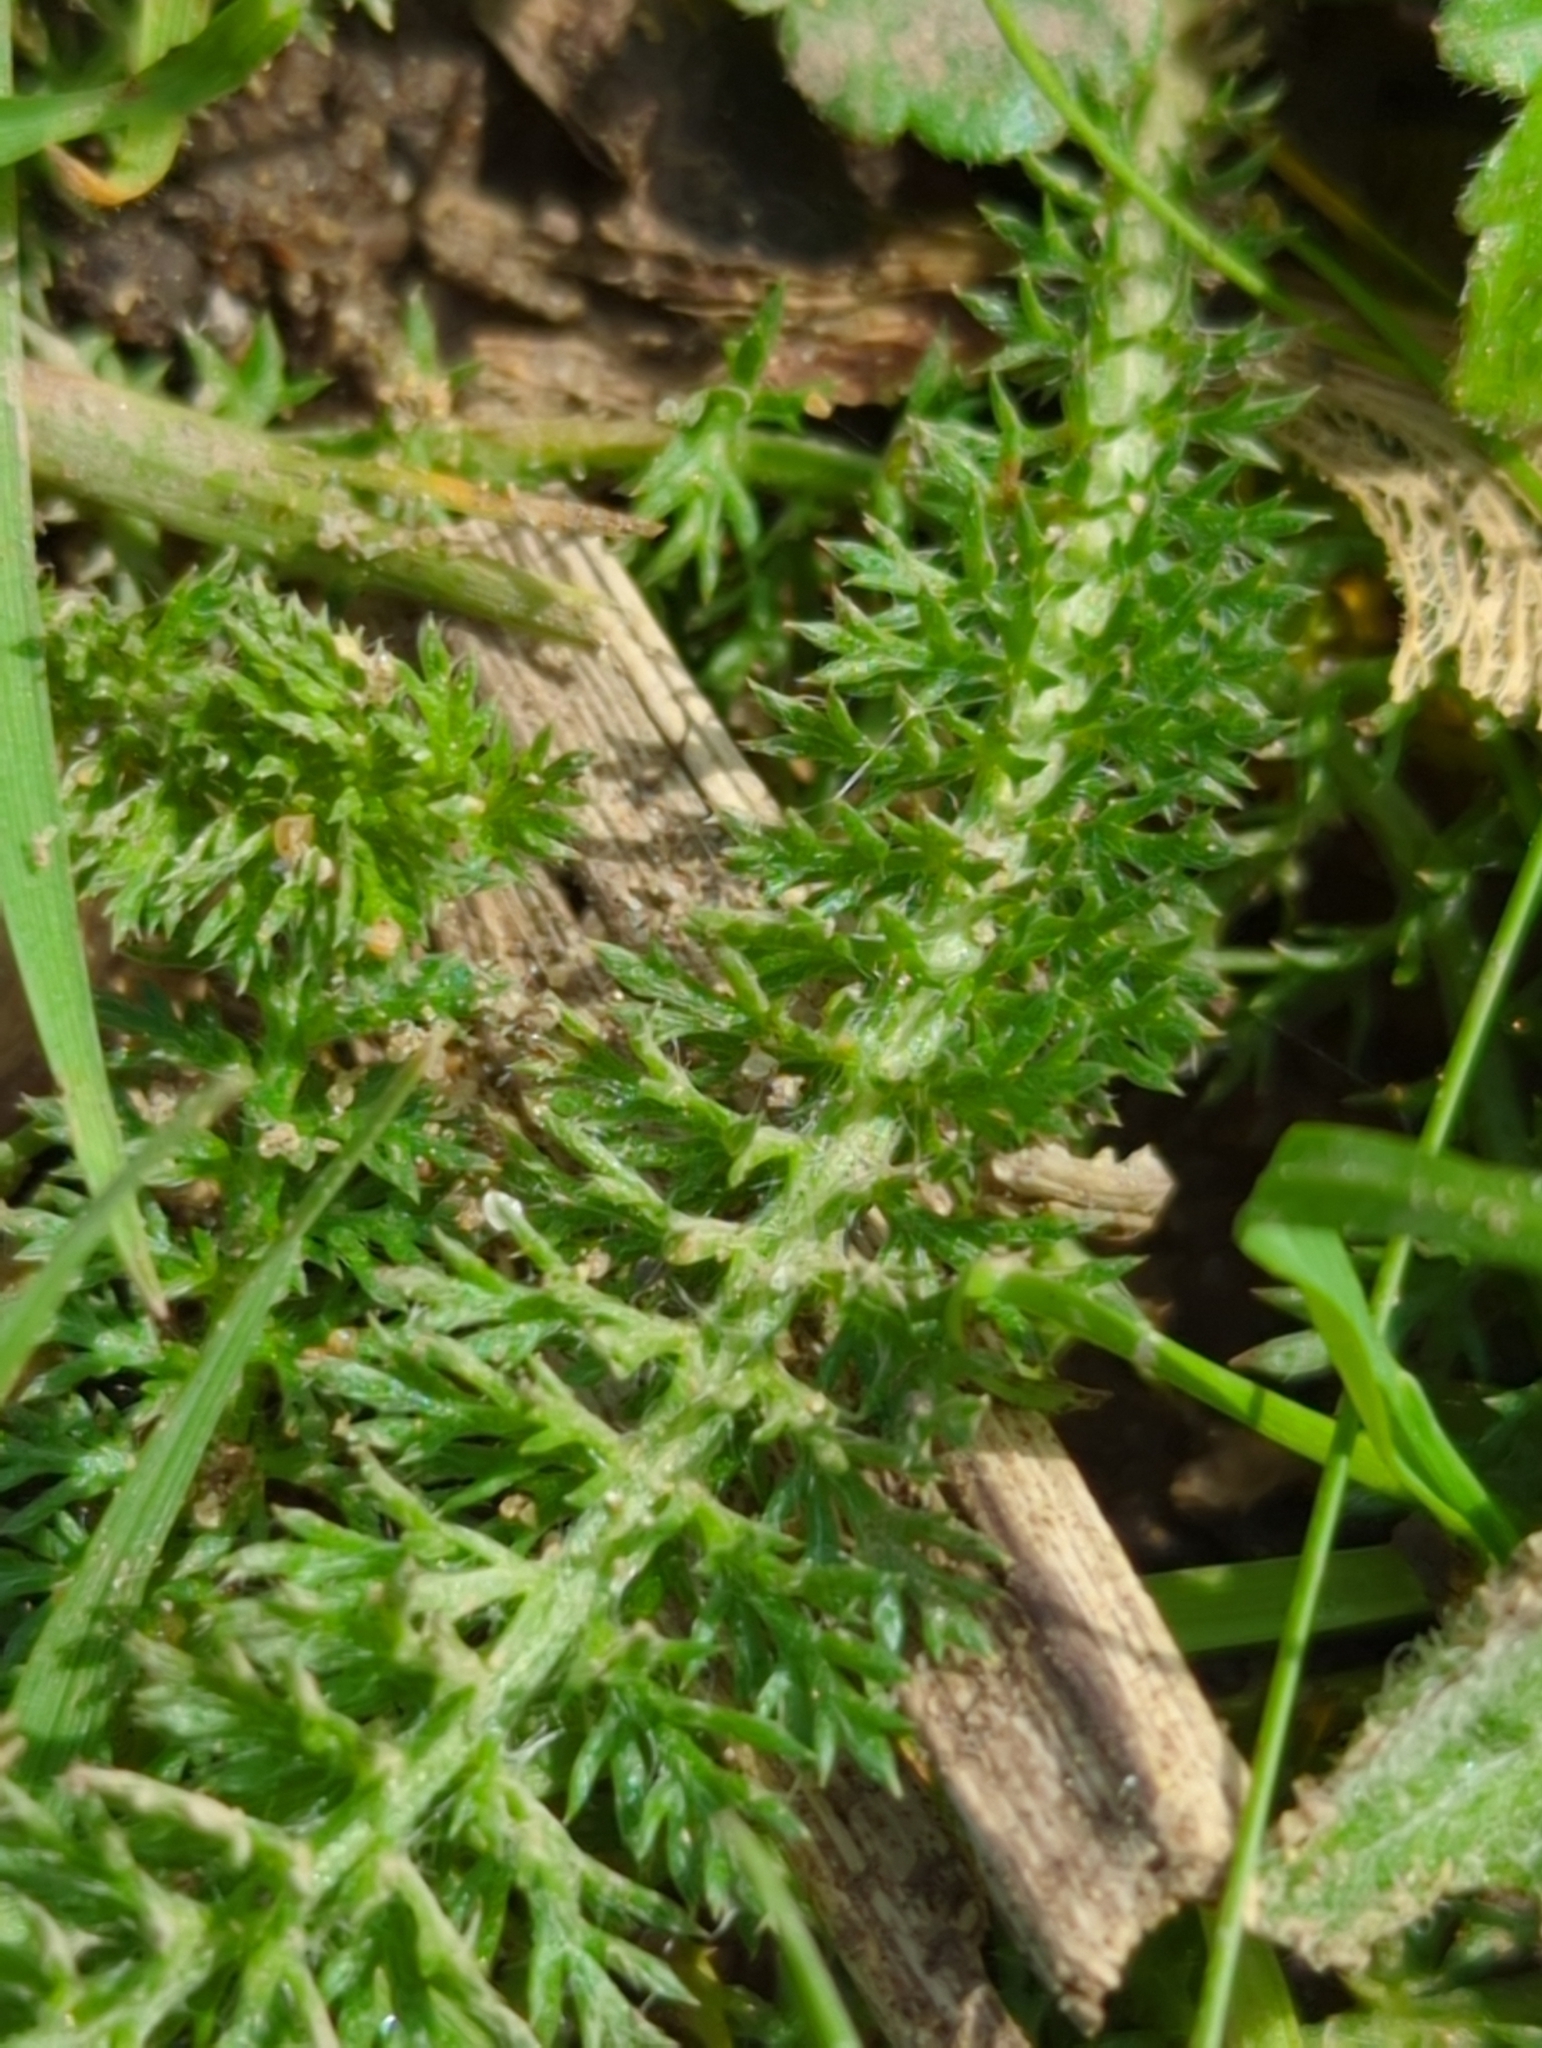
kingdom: Plantae
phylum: Tracheophyta
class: Magnoliopsida
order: Asterales
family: Asteraceae
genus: Achillea
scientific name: Achillea millefolium
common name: Yarrow
